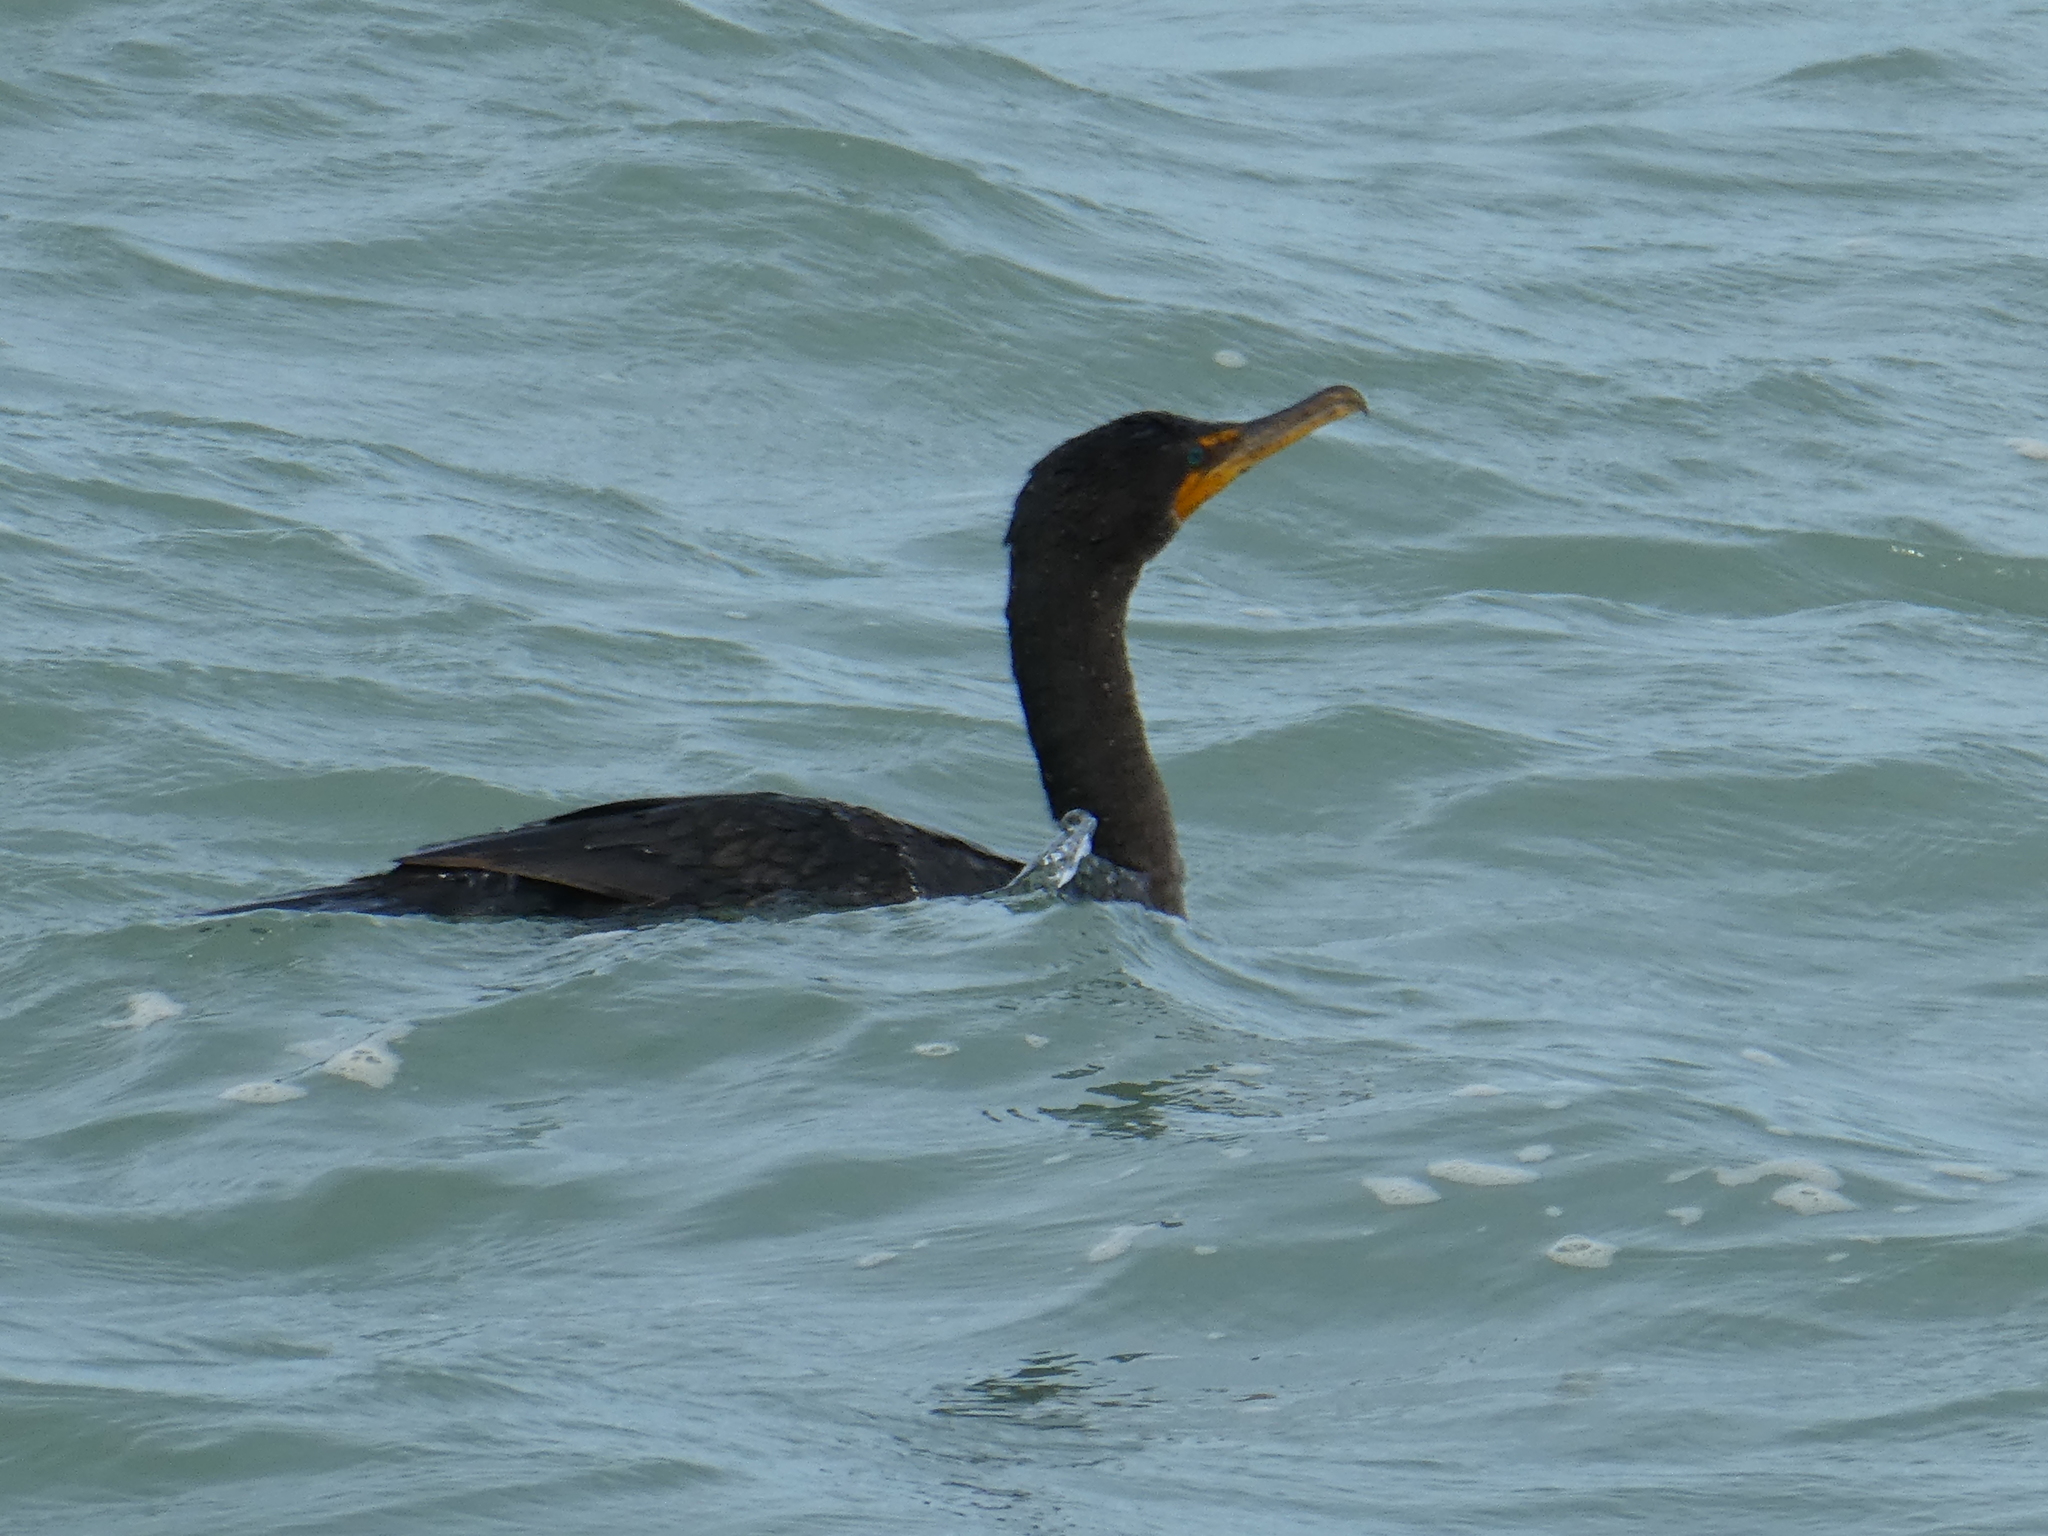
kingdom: Animalia
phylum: Chordata
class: Aves
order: Suliformes
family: Phalacrocoracidae
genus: Phalacrocorax
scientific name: Phalacrocorax auritus
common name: Double-crested cormorant
